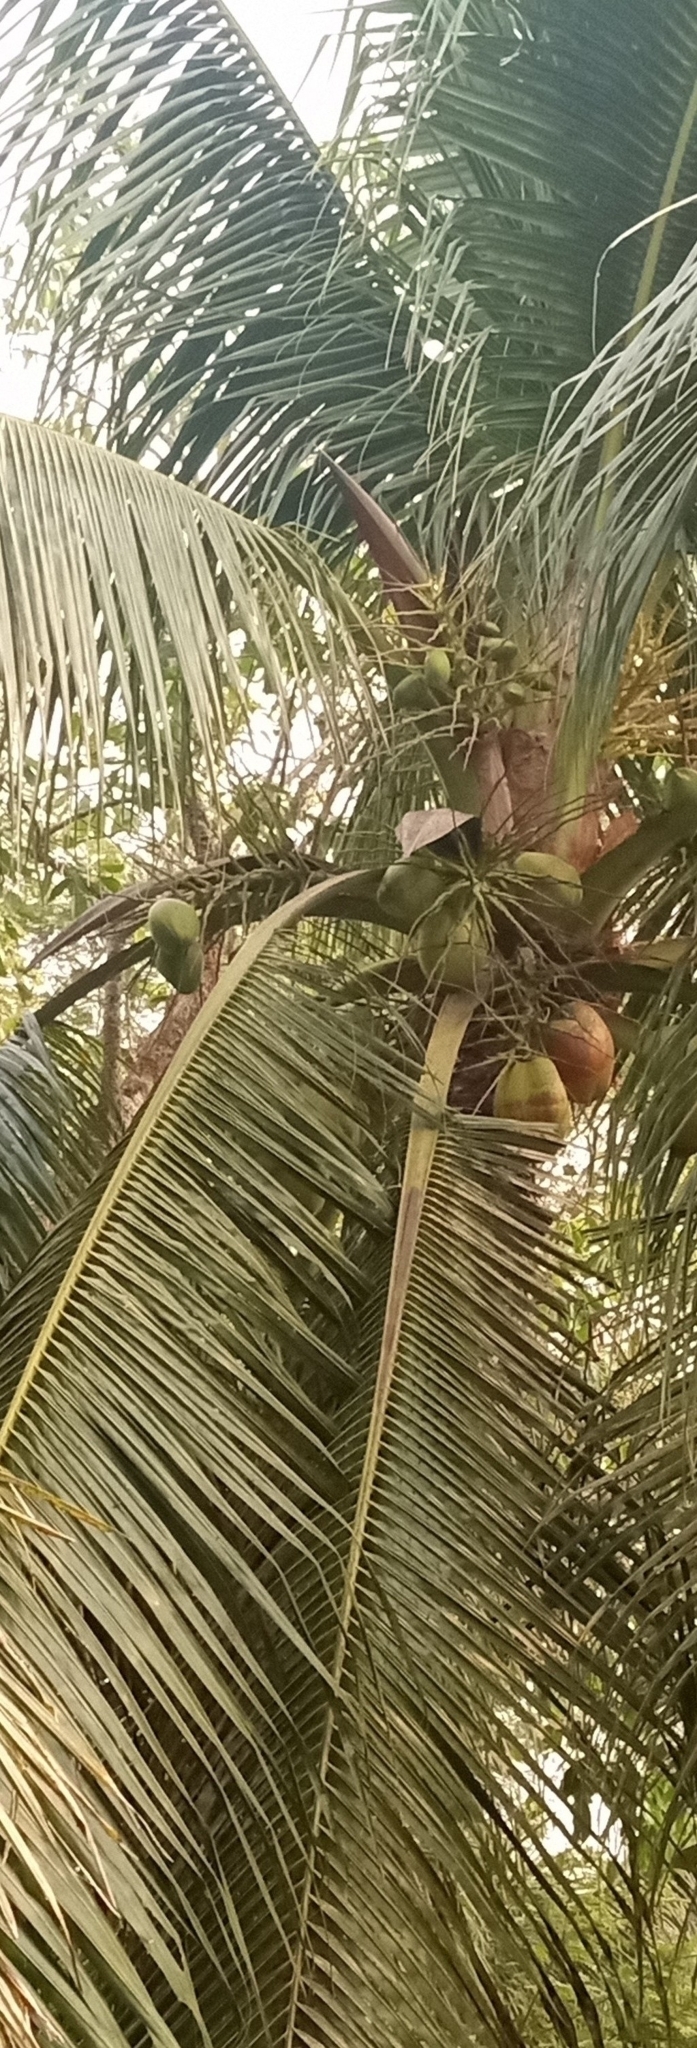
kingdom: Plantae
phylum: Tracheophyta
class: Liliopsida
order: Arecales
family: Arecaceae
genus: Cocos
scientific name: Cocos nucifera
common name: Coconut palm
